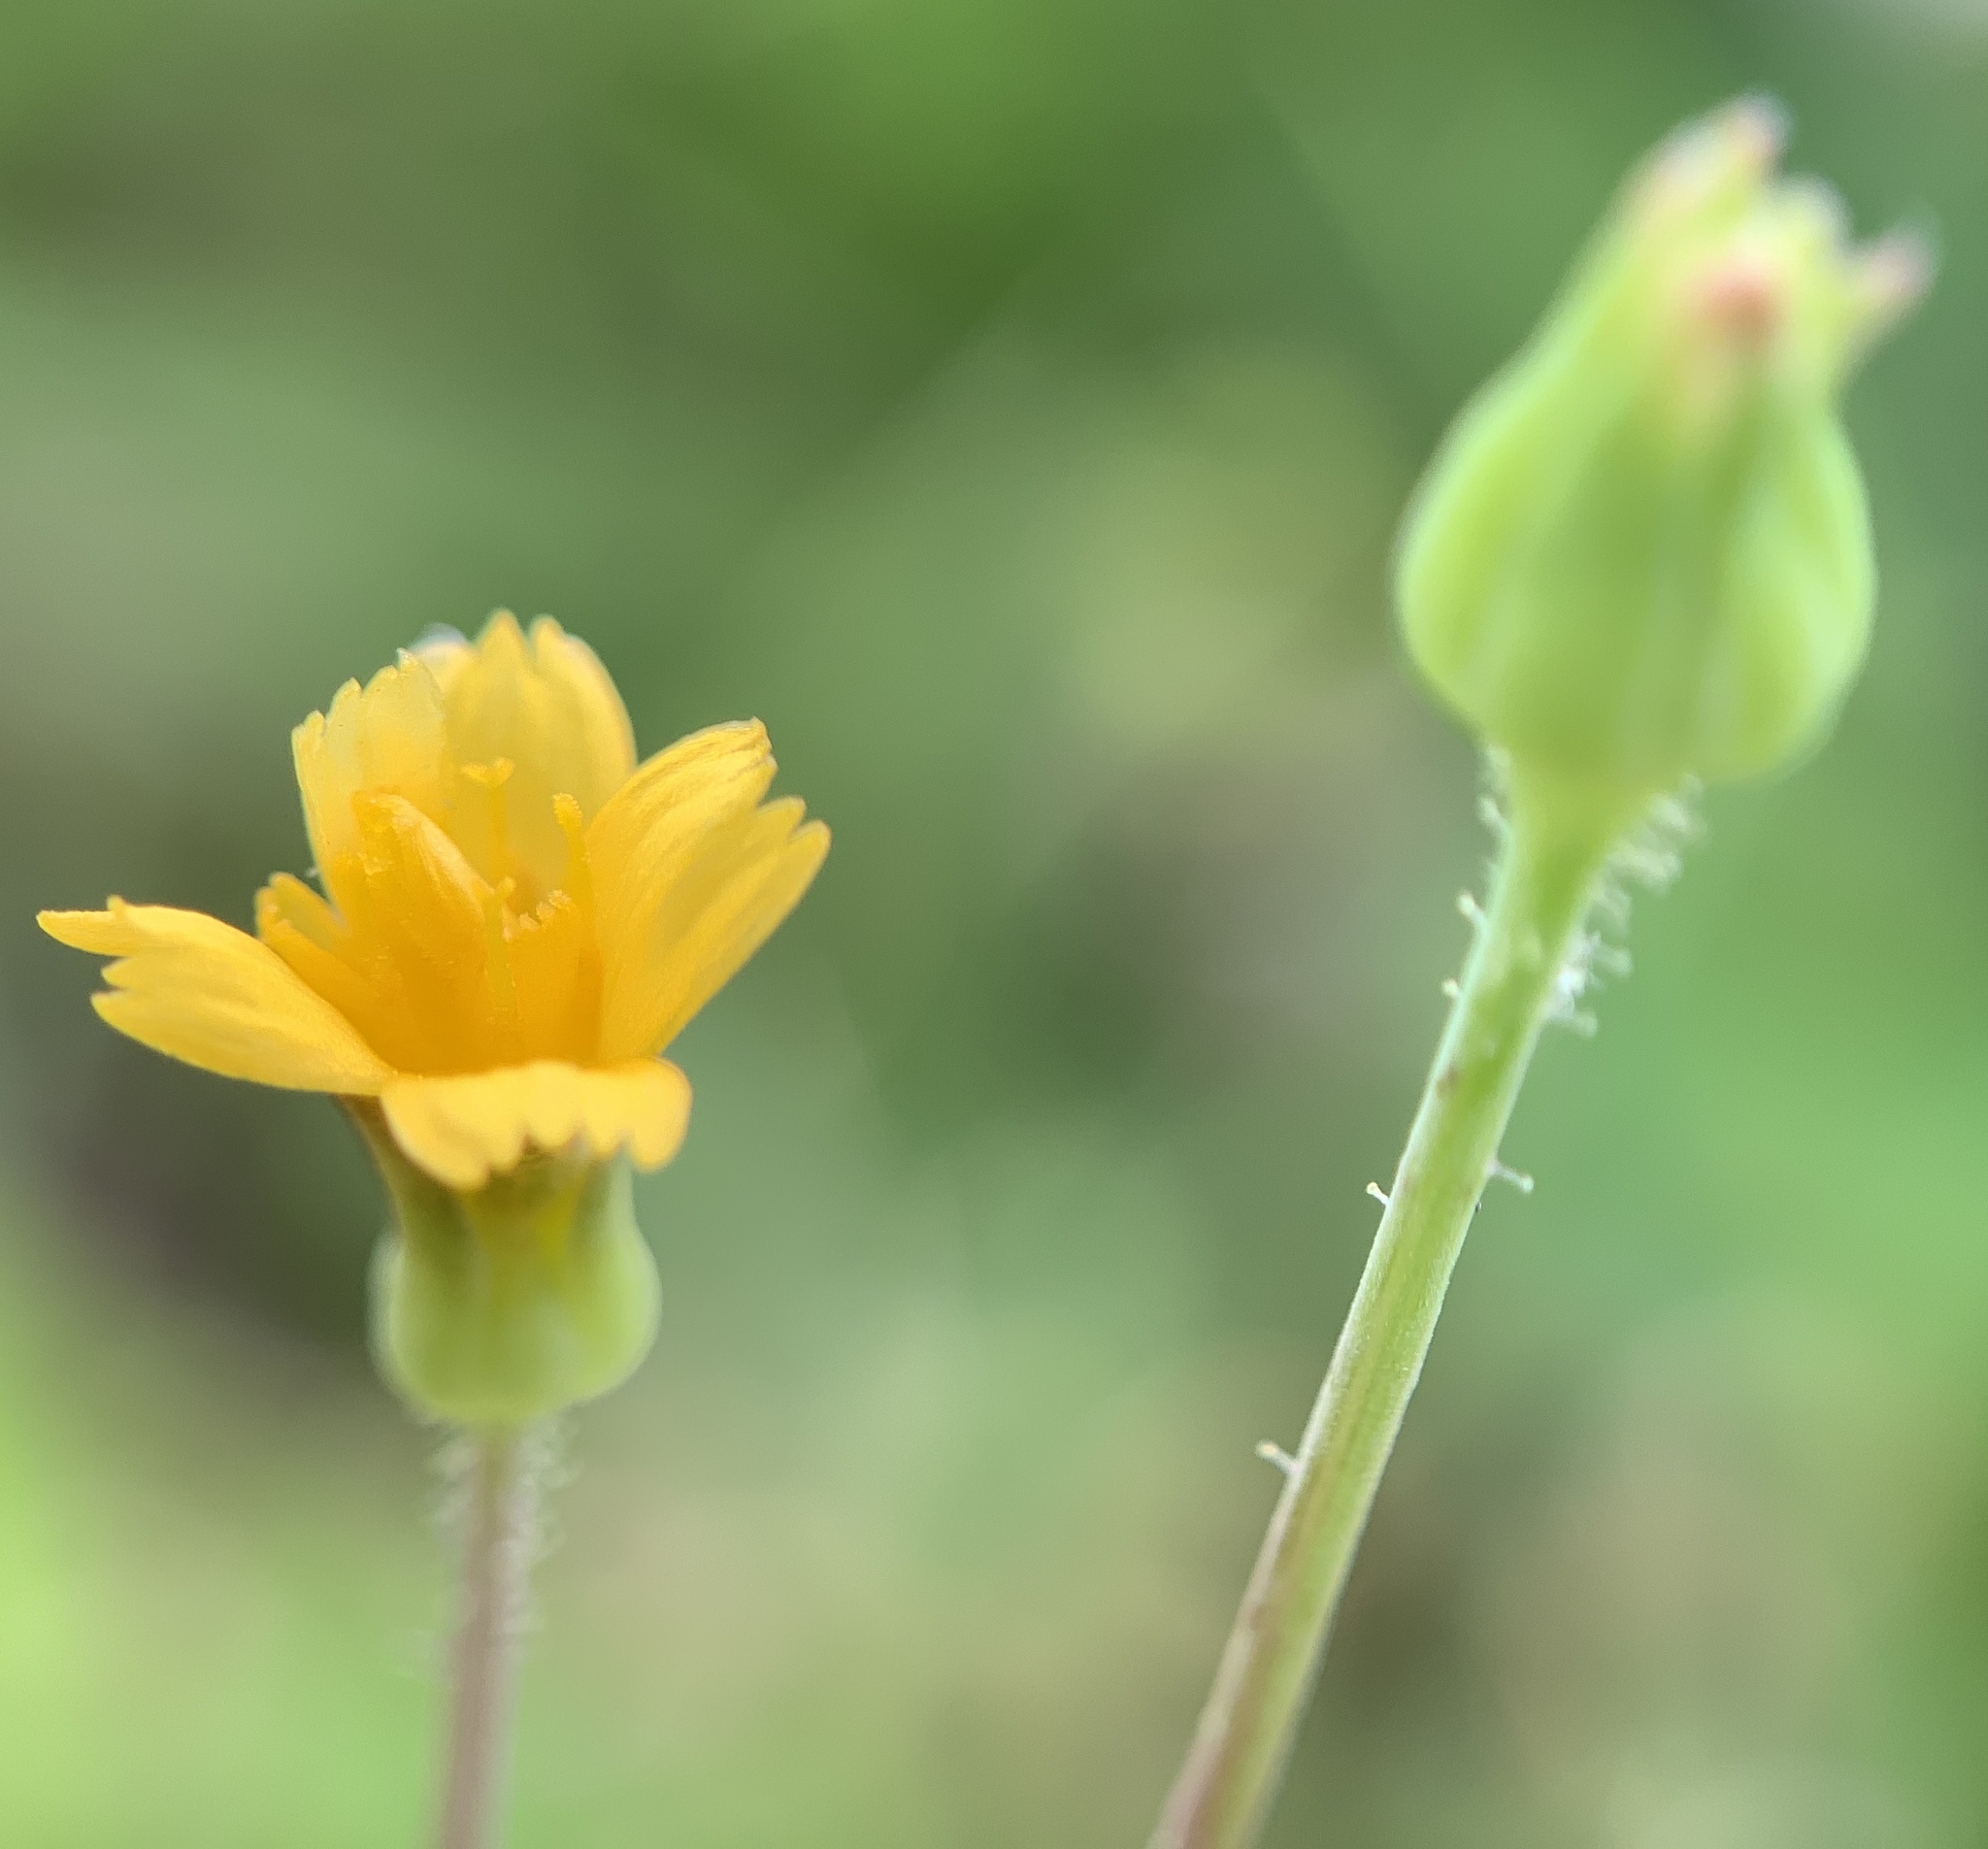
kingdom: Plantae
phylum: Tracheophyta
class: Magnoliopsida
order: Asterales
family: Asteraceae
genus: Krigia
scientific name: Krigia cespitosa
